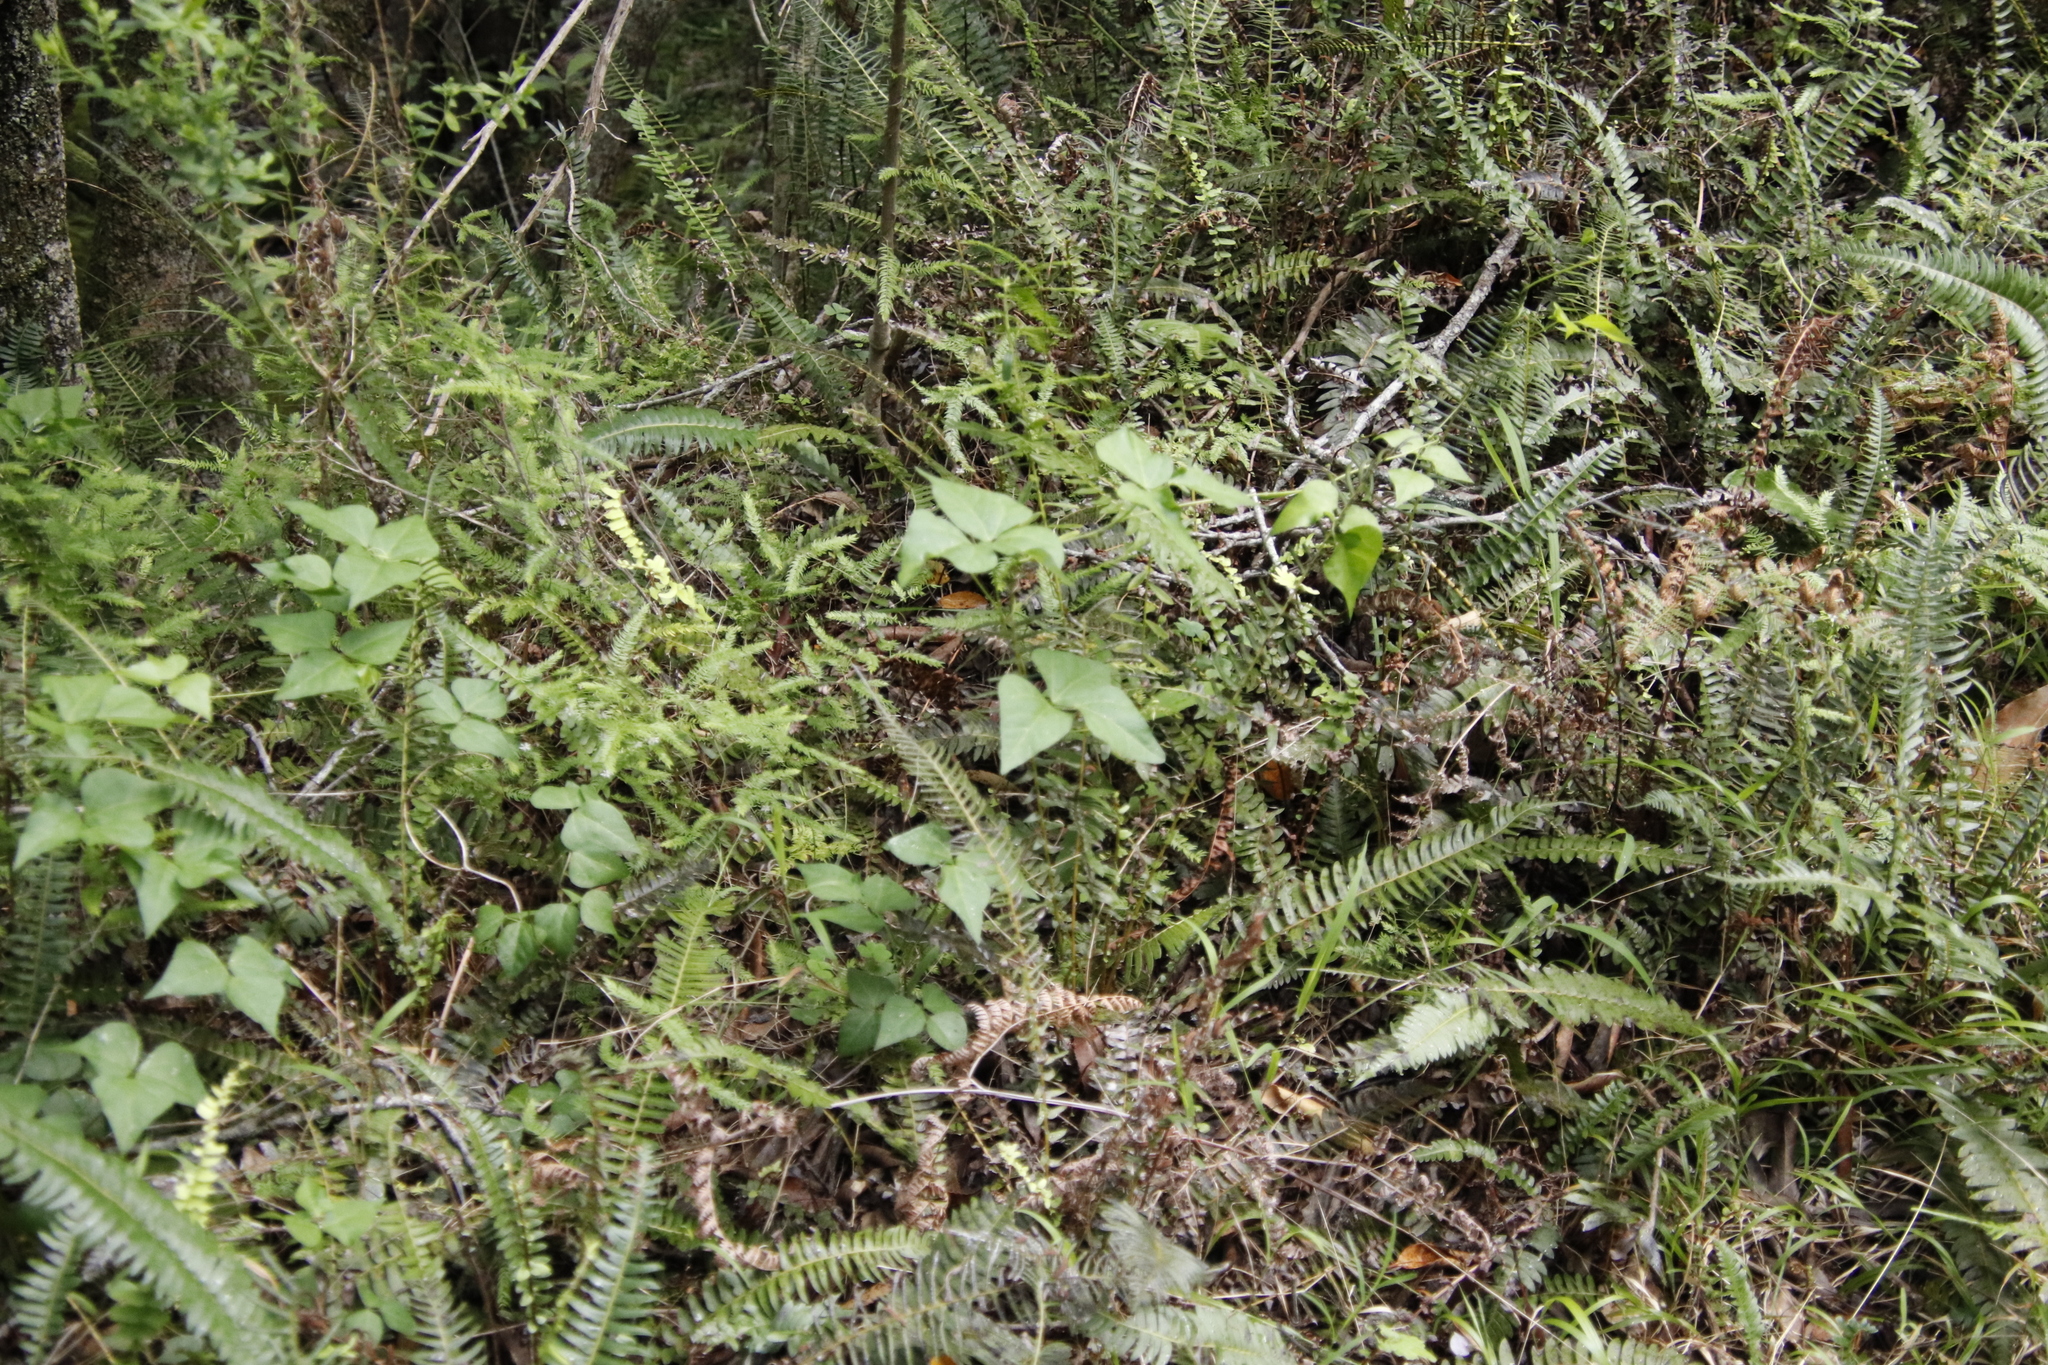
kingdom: Plantae
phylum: Tracheophyta
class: Magnoliopsida
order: Fabales
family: Fabaceae
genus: Dipogon
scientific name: Dipogon lignosus
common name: Okie bean
